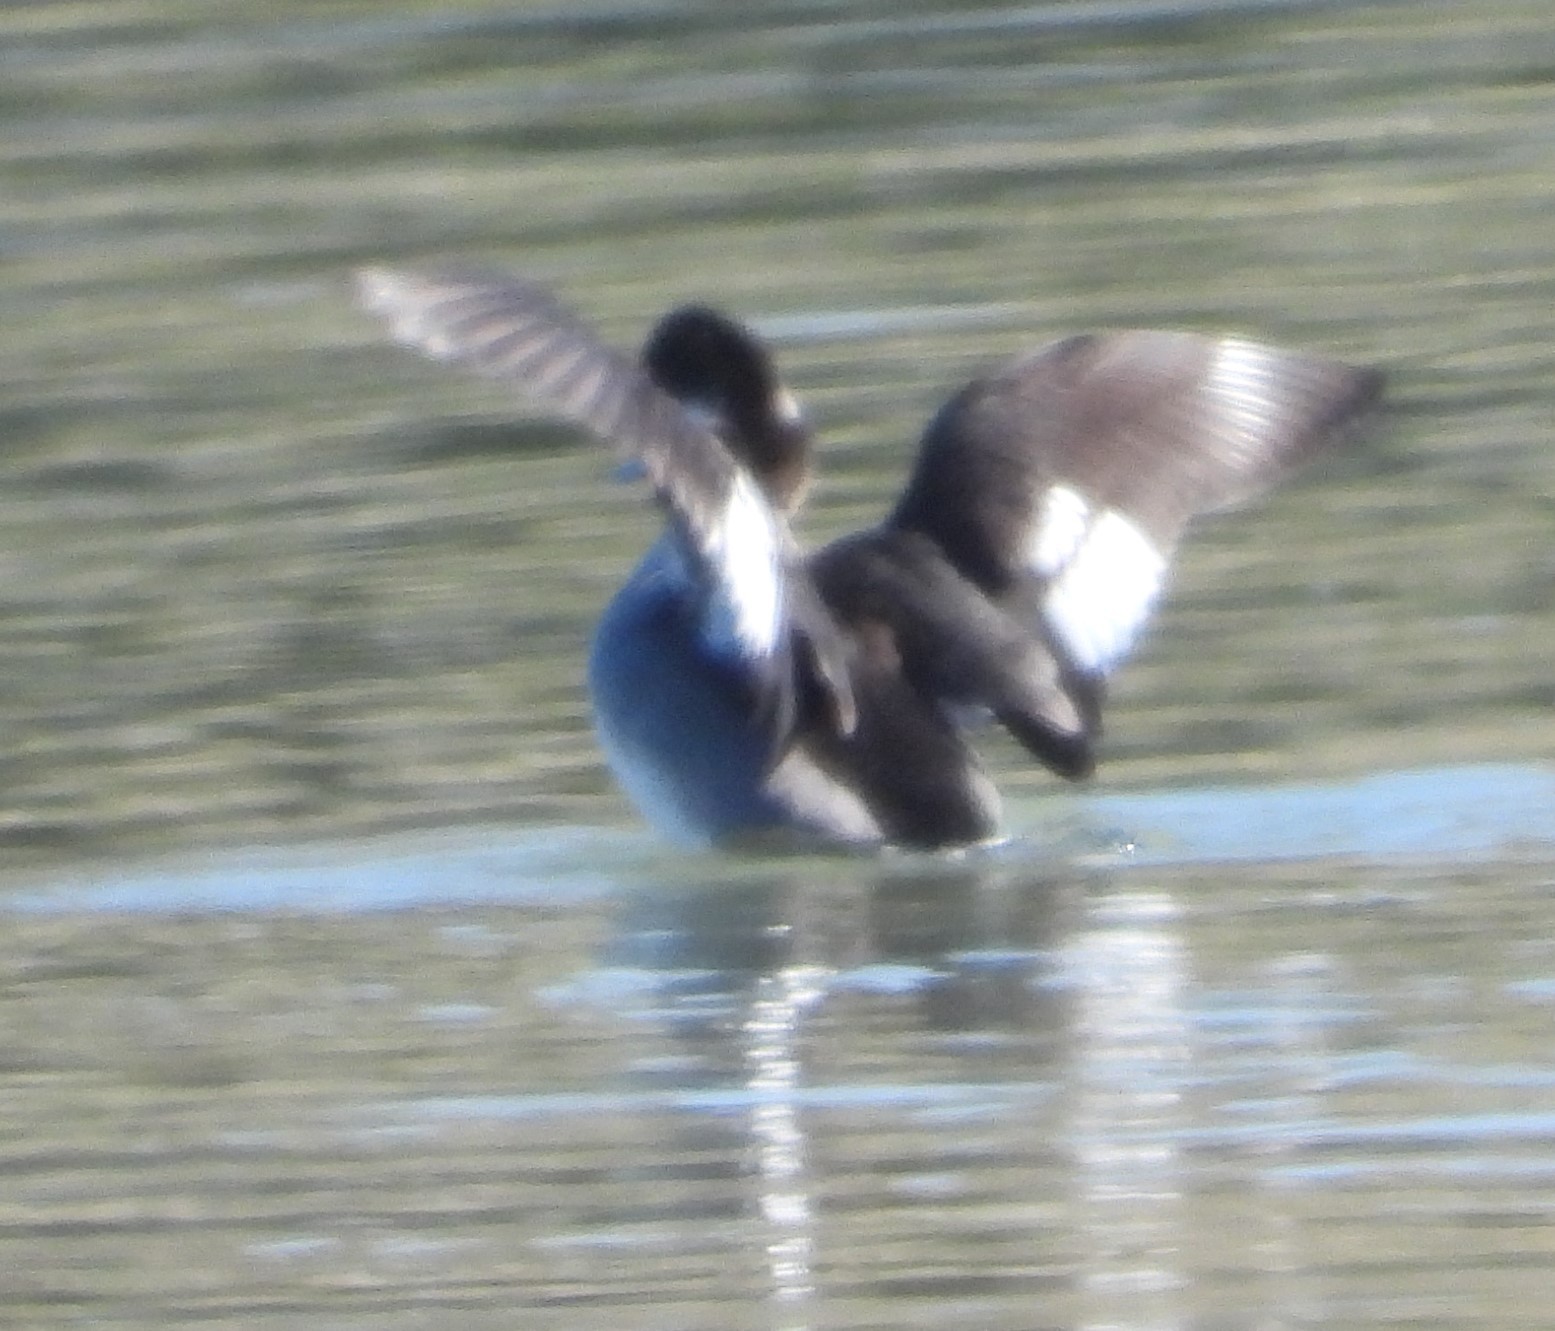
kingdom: Animalia
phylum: Chordata
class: Aves
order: Anseriformes
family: Anatidae
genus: Bucephala
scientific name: Bucephala albeola
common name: Bufflehead
